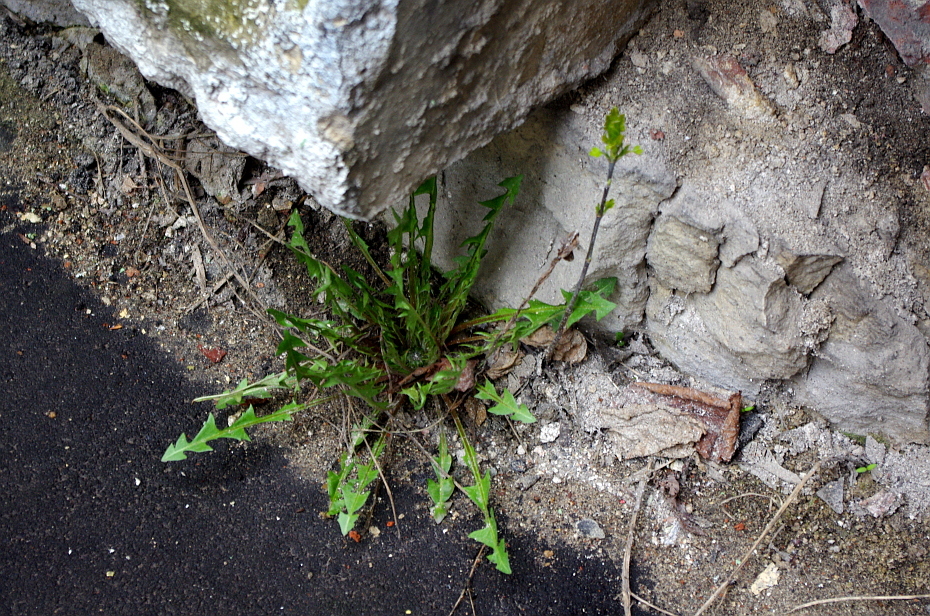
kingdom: Plantae
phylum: Tracheophyta
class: Magnoliopsida
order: Asterales
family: Asteraceae
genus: Taraxacum
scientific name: Taraxacum officinale
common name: Common dandelion
